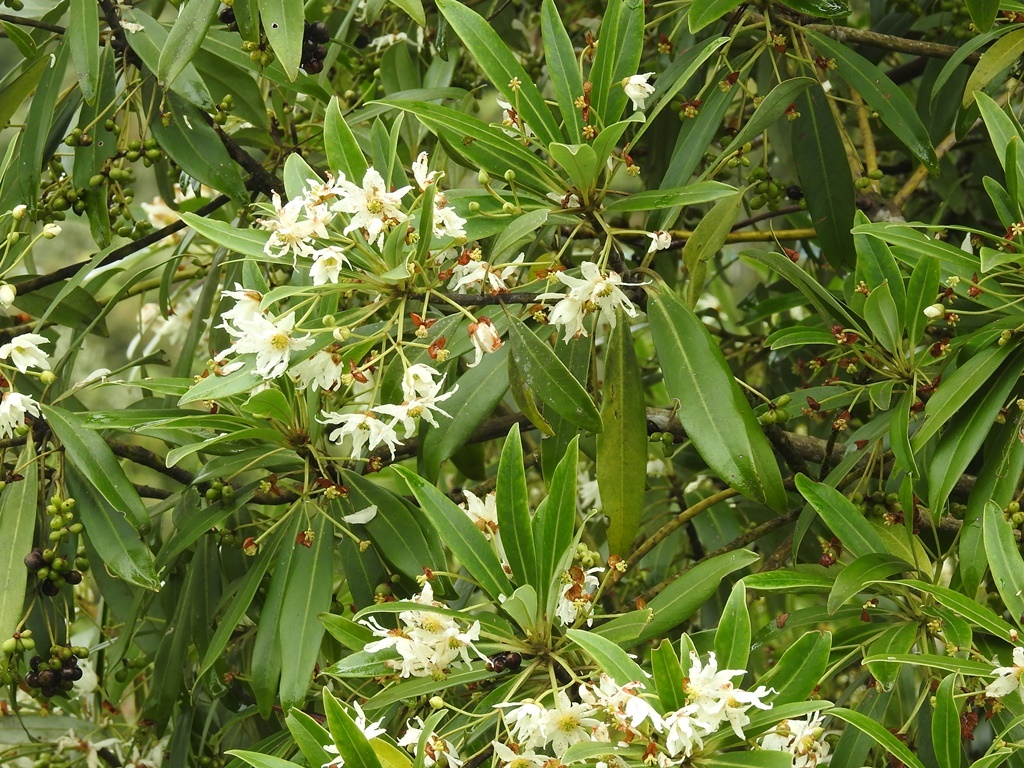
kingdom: Plantae
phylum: Tracheophyta
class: Magnoliopsida
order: Canellales
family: Winteraceae
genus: Drimys
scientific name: Drimys granadensis
